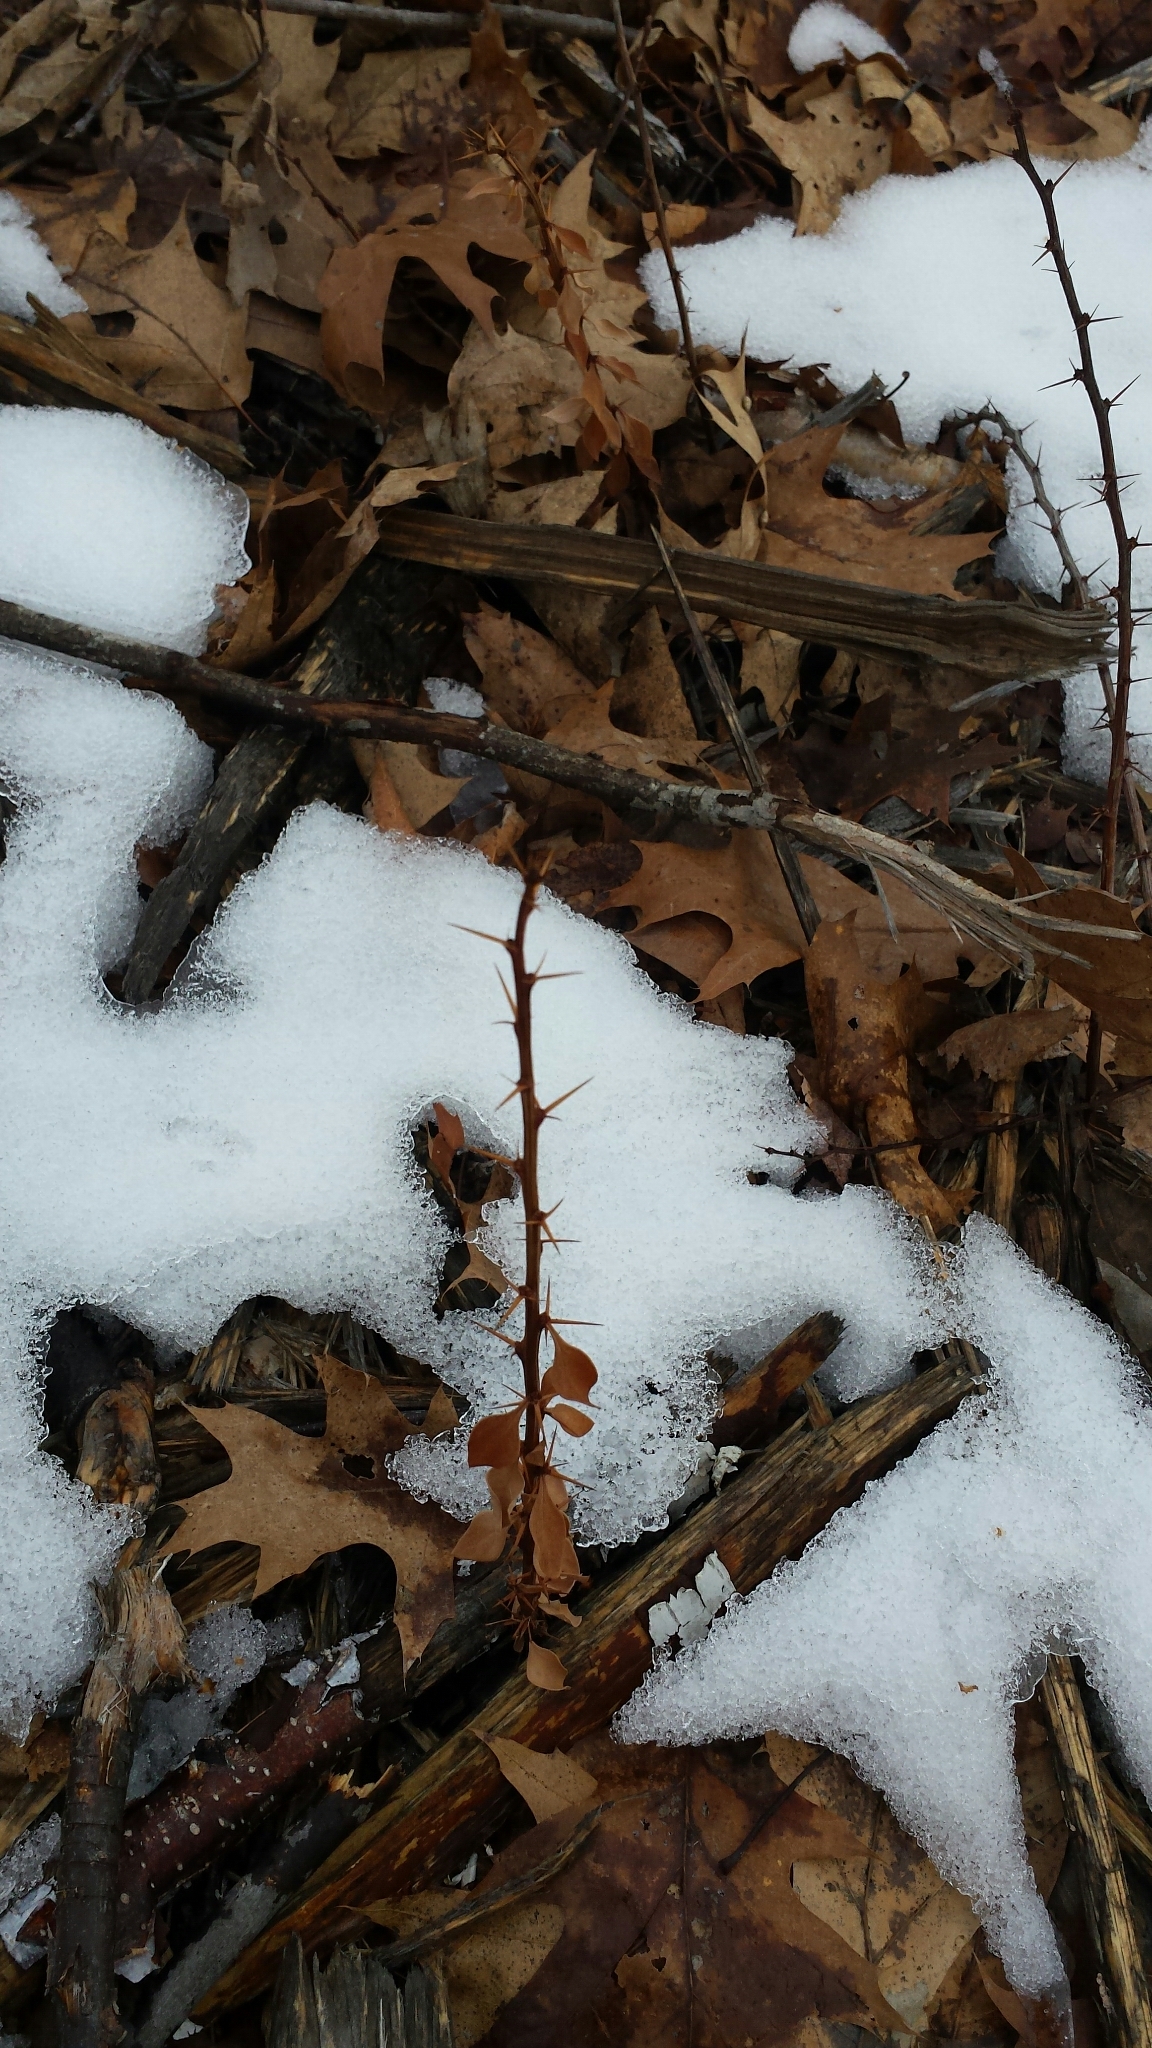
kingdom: Plantae
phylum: Tracheophyta
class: Magnoliopsida
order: Ranunculales
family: Berberidaceae
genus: Berberis
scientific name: Berberis thunbergii
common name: Japanese barberry
